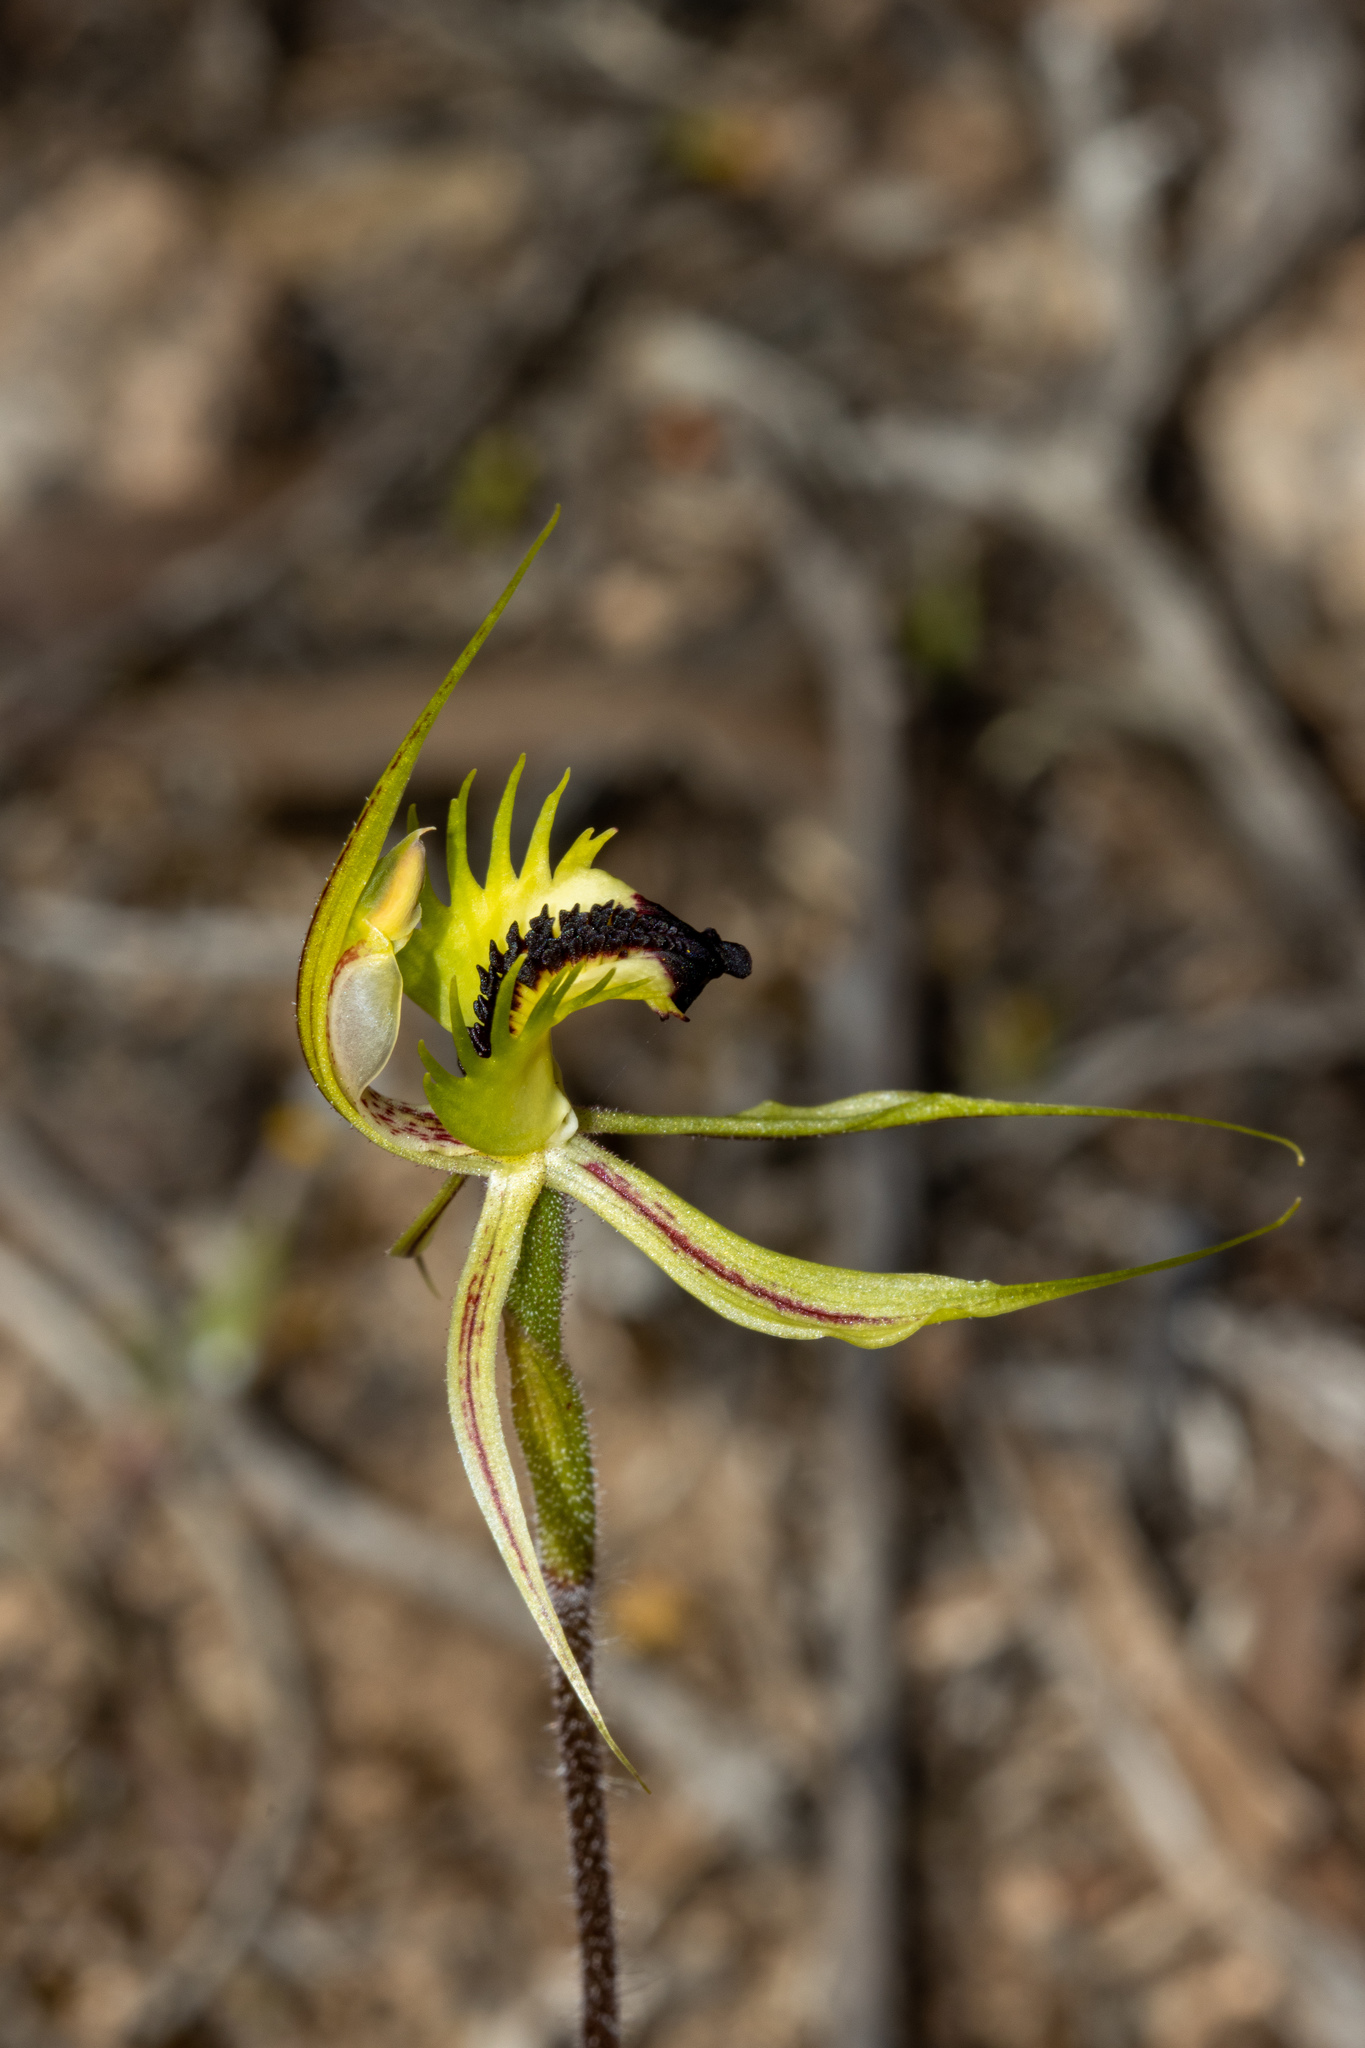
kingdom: Plantae
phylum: Tracheophyta
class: Liliopsida
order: Asparagales
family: Orchidaceae
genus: Caladenia
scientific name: Caladenia stricta
